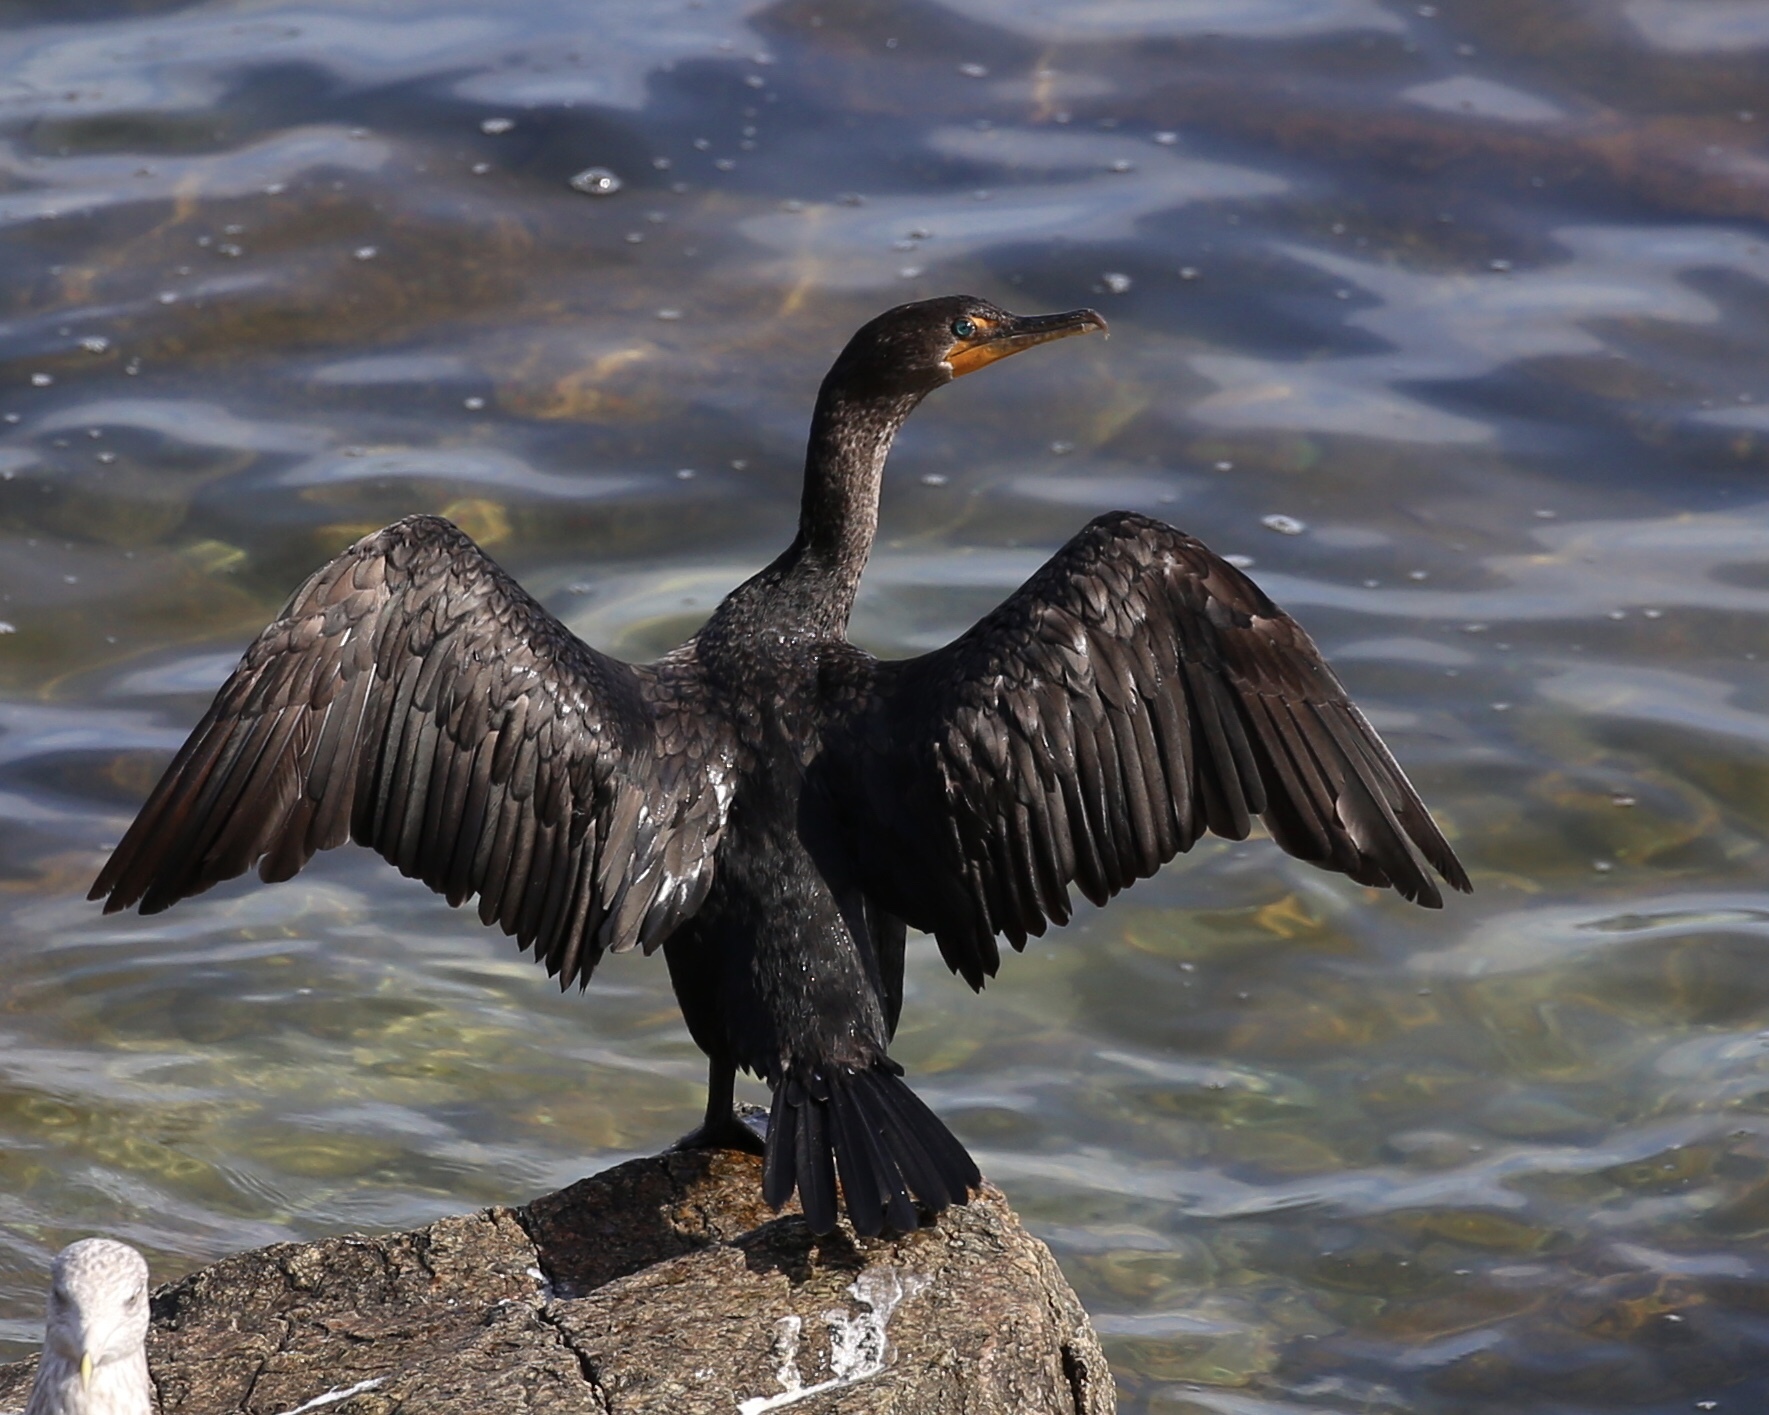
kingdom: Animalia
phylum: Chordata
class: Aves
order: Suliformes
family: Phalacrocoracidae
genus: Phalacrocorax
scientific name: Phalacrocorax auritus
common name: Double-crested cormorant
